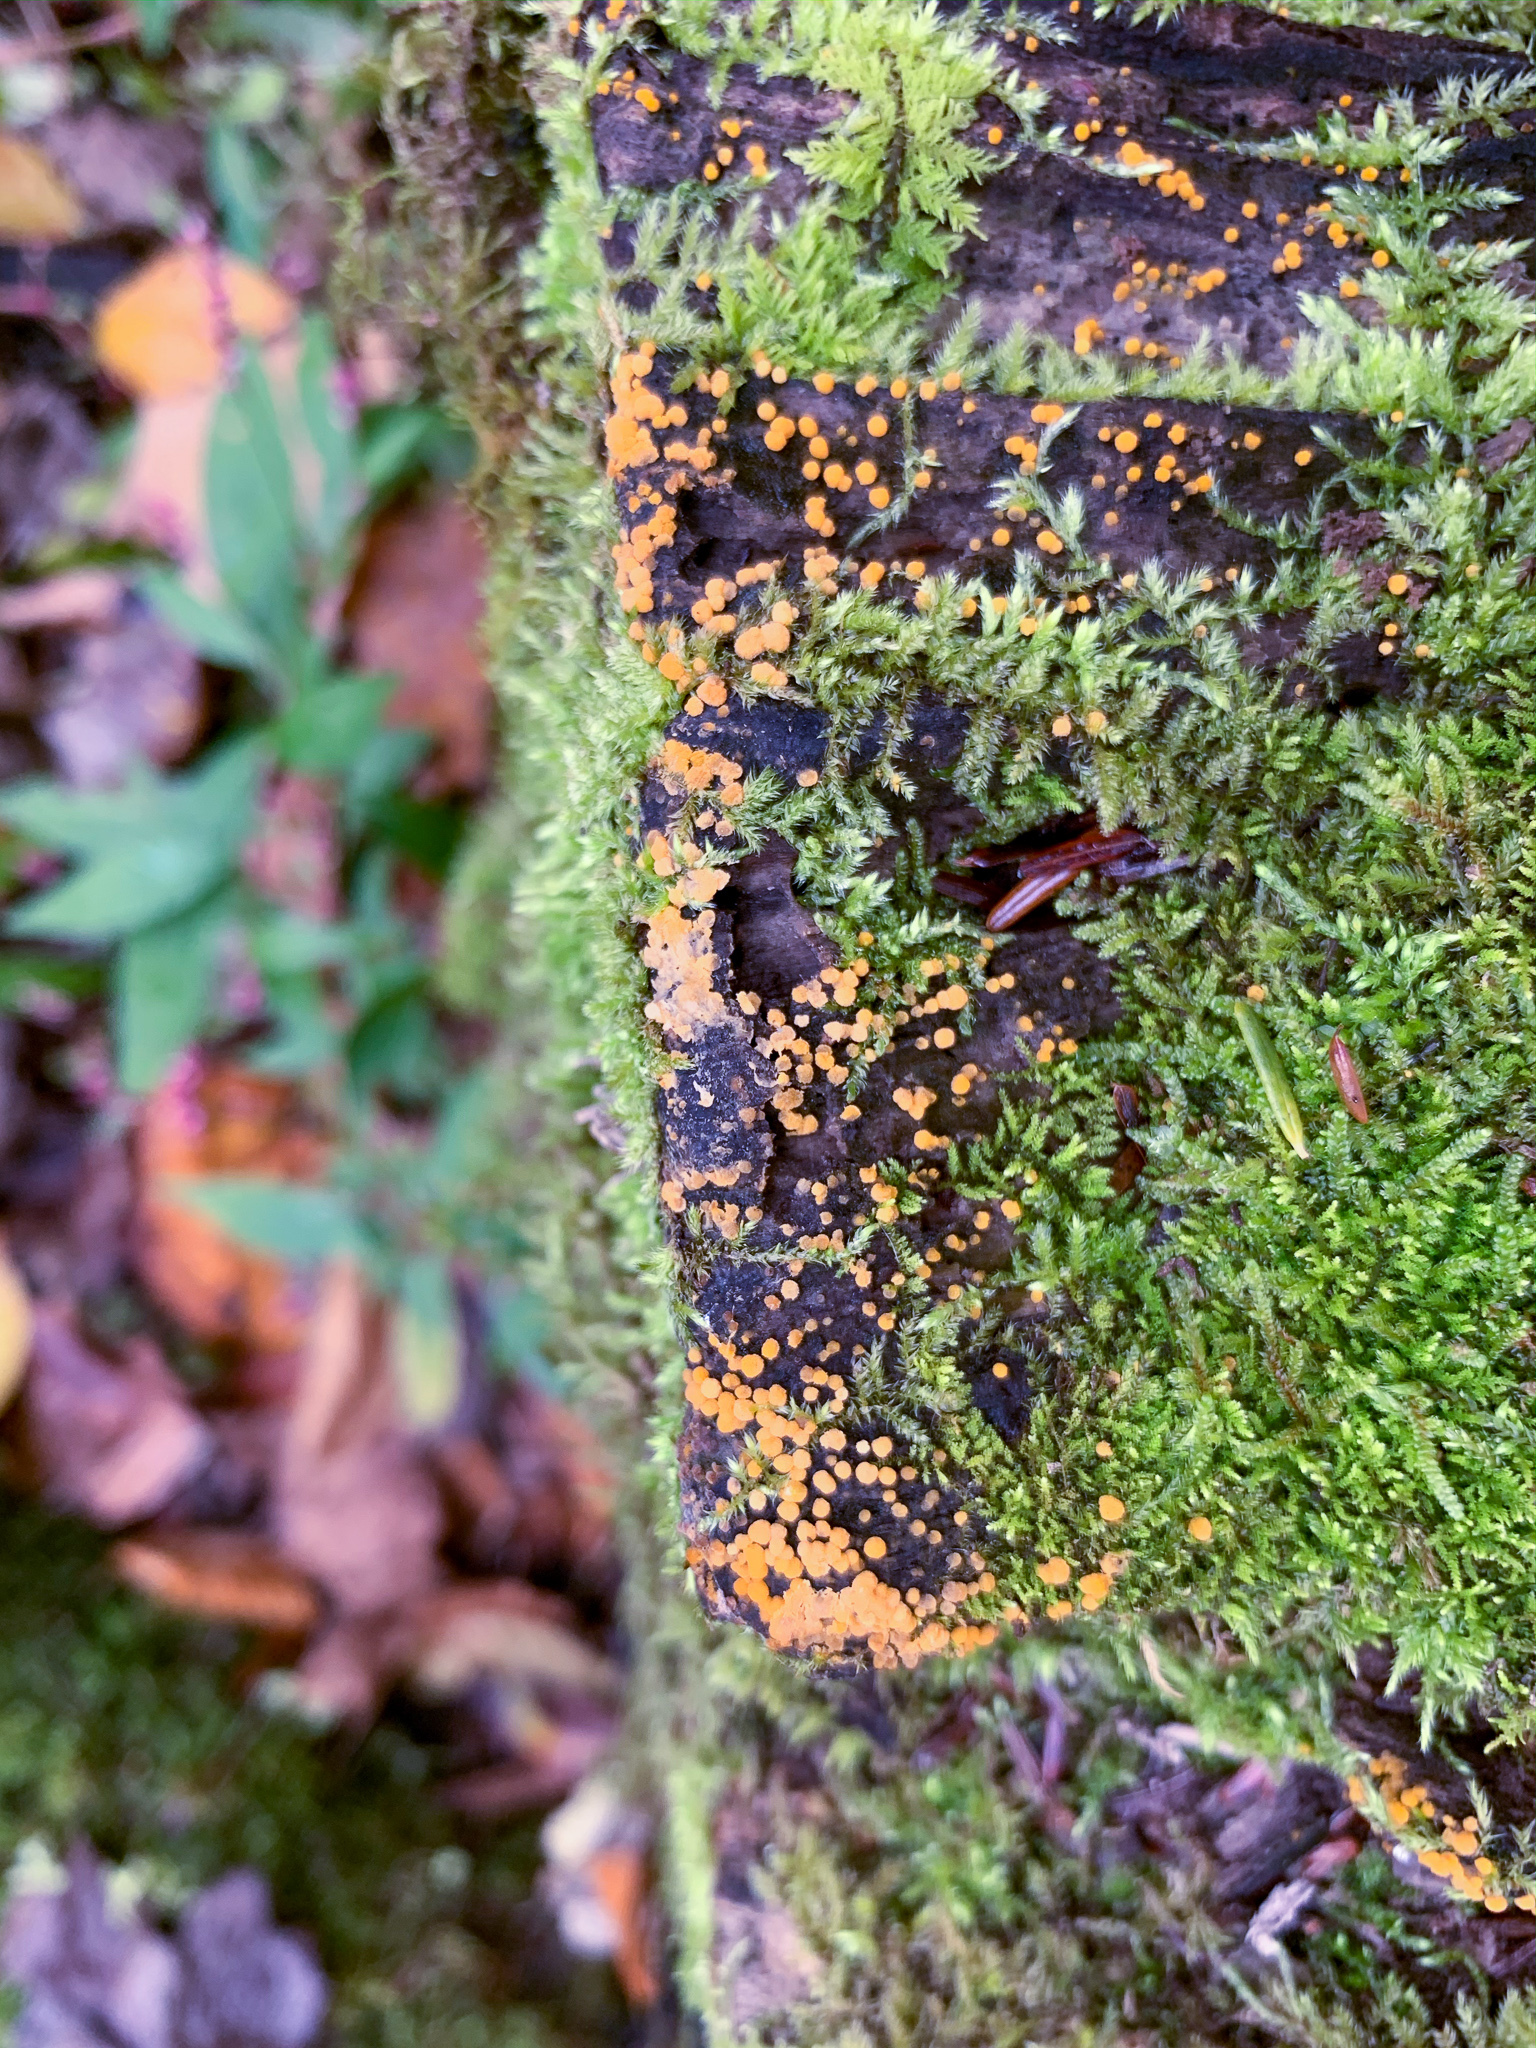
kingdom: Fungi
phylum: Ascomycota
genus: Bactridium
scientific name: Bactridium flavum
